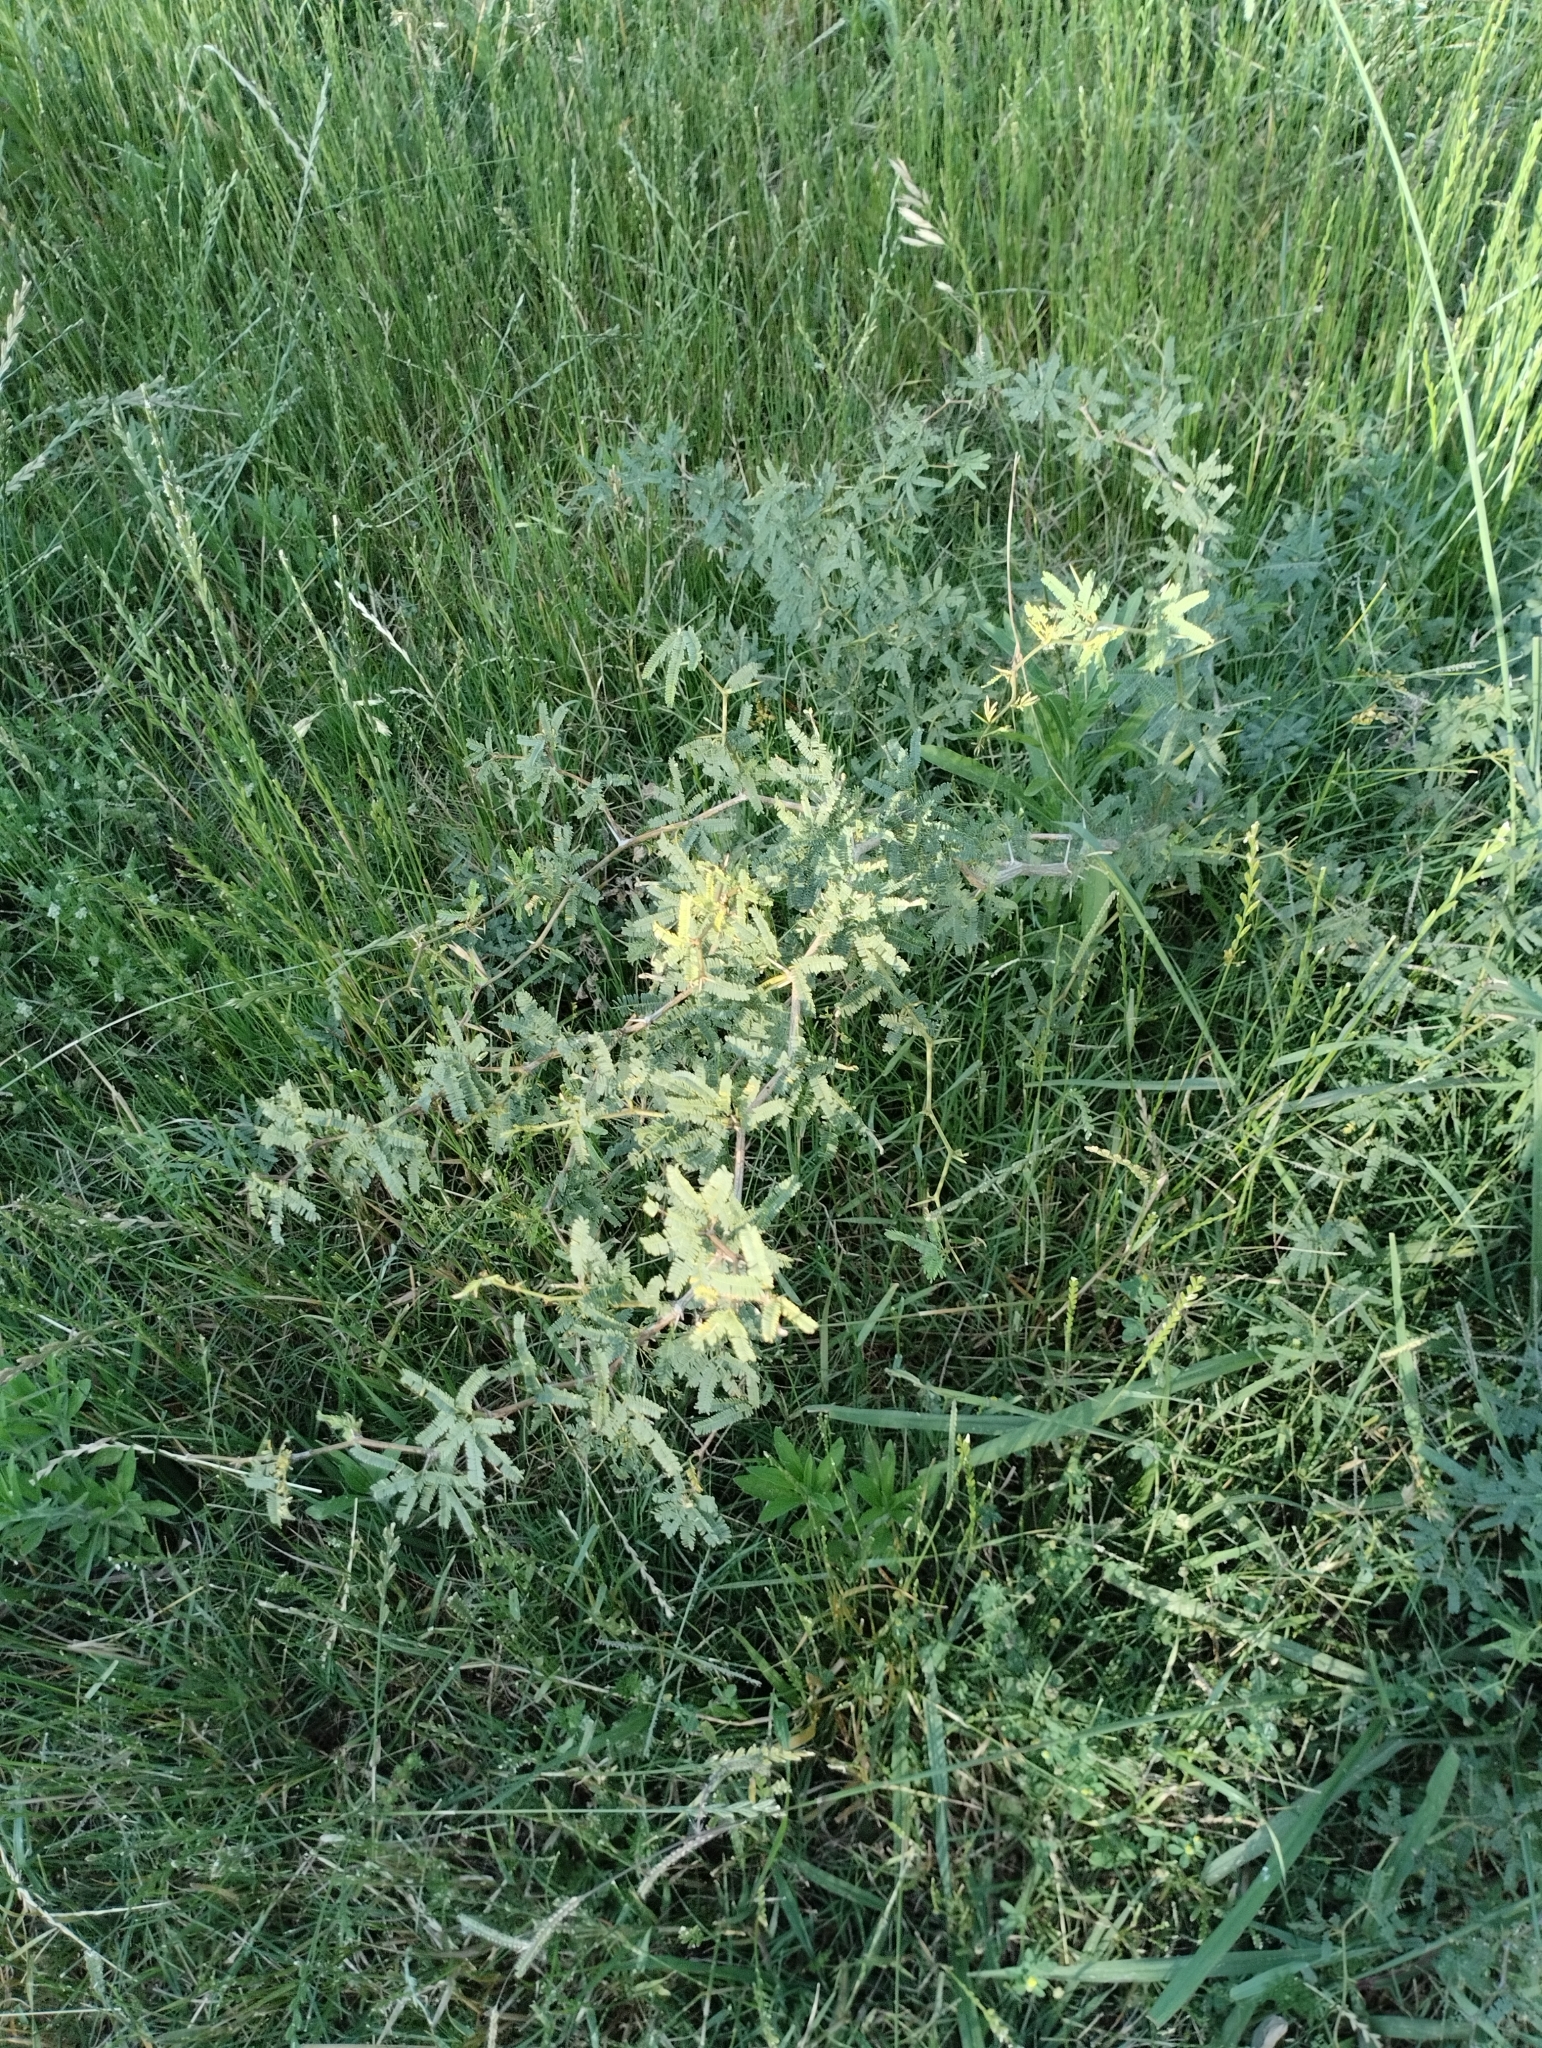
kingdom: Plantae
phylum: Tracheophyta
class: Magnoliopsida
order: Fabales
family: Fabaceae
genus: Prosopis
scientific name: Prosopis affinis
